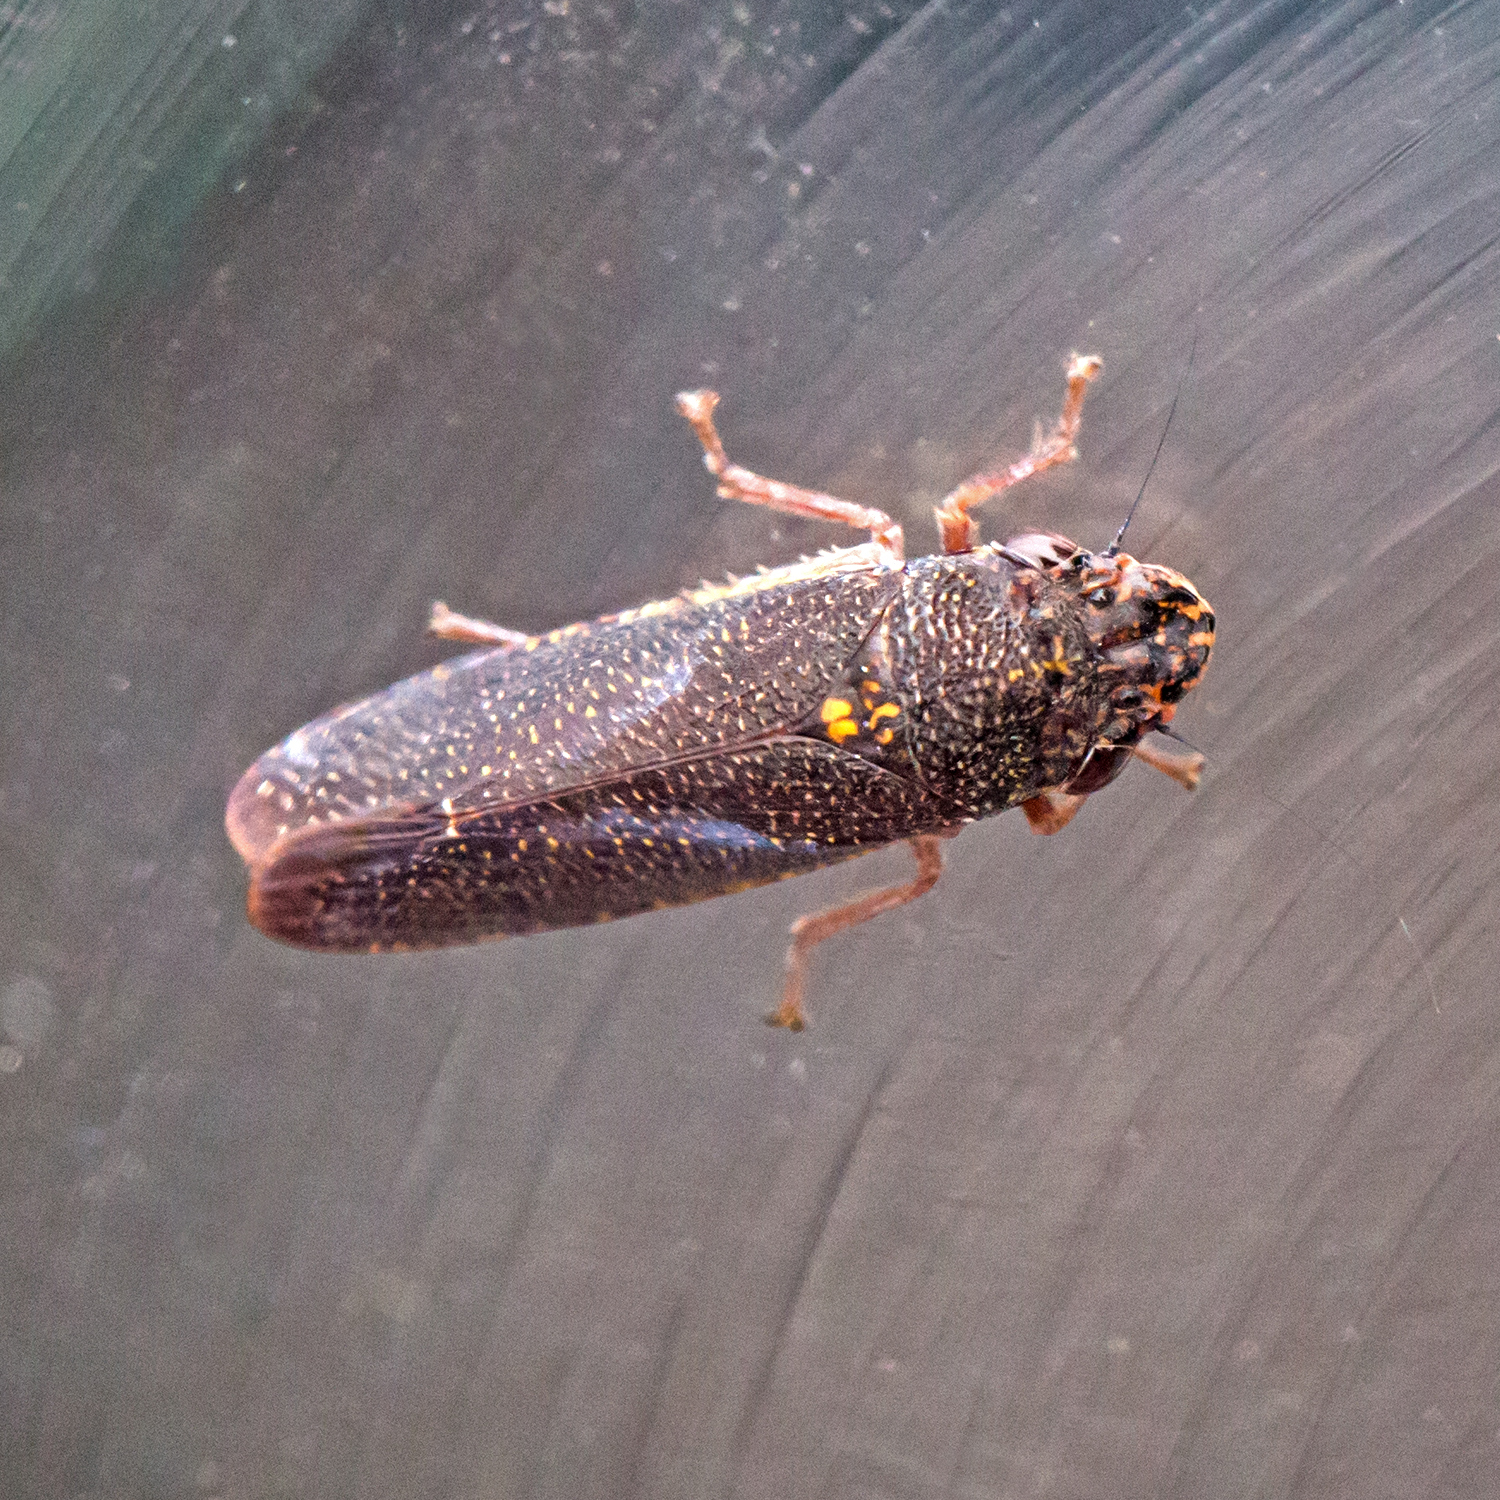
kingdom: Animalia
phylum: Arthropoda
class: Insecta
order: Hemiptera
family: Cicadellidae
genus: Paraulacizes
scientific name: Paraulacizes irrorata
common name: Speckled sharpshooter
